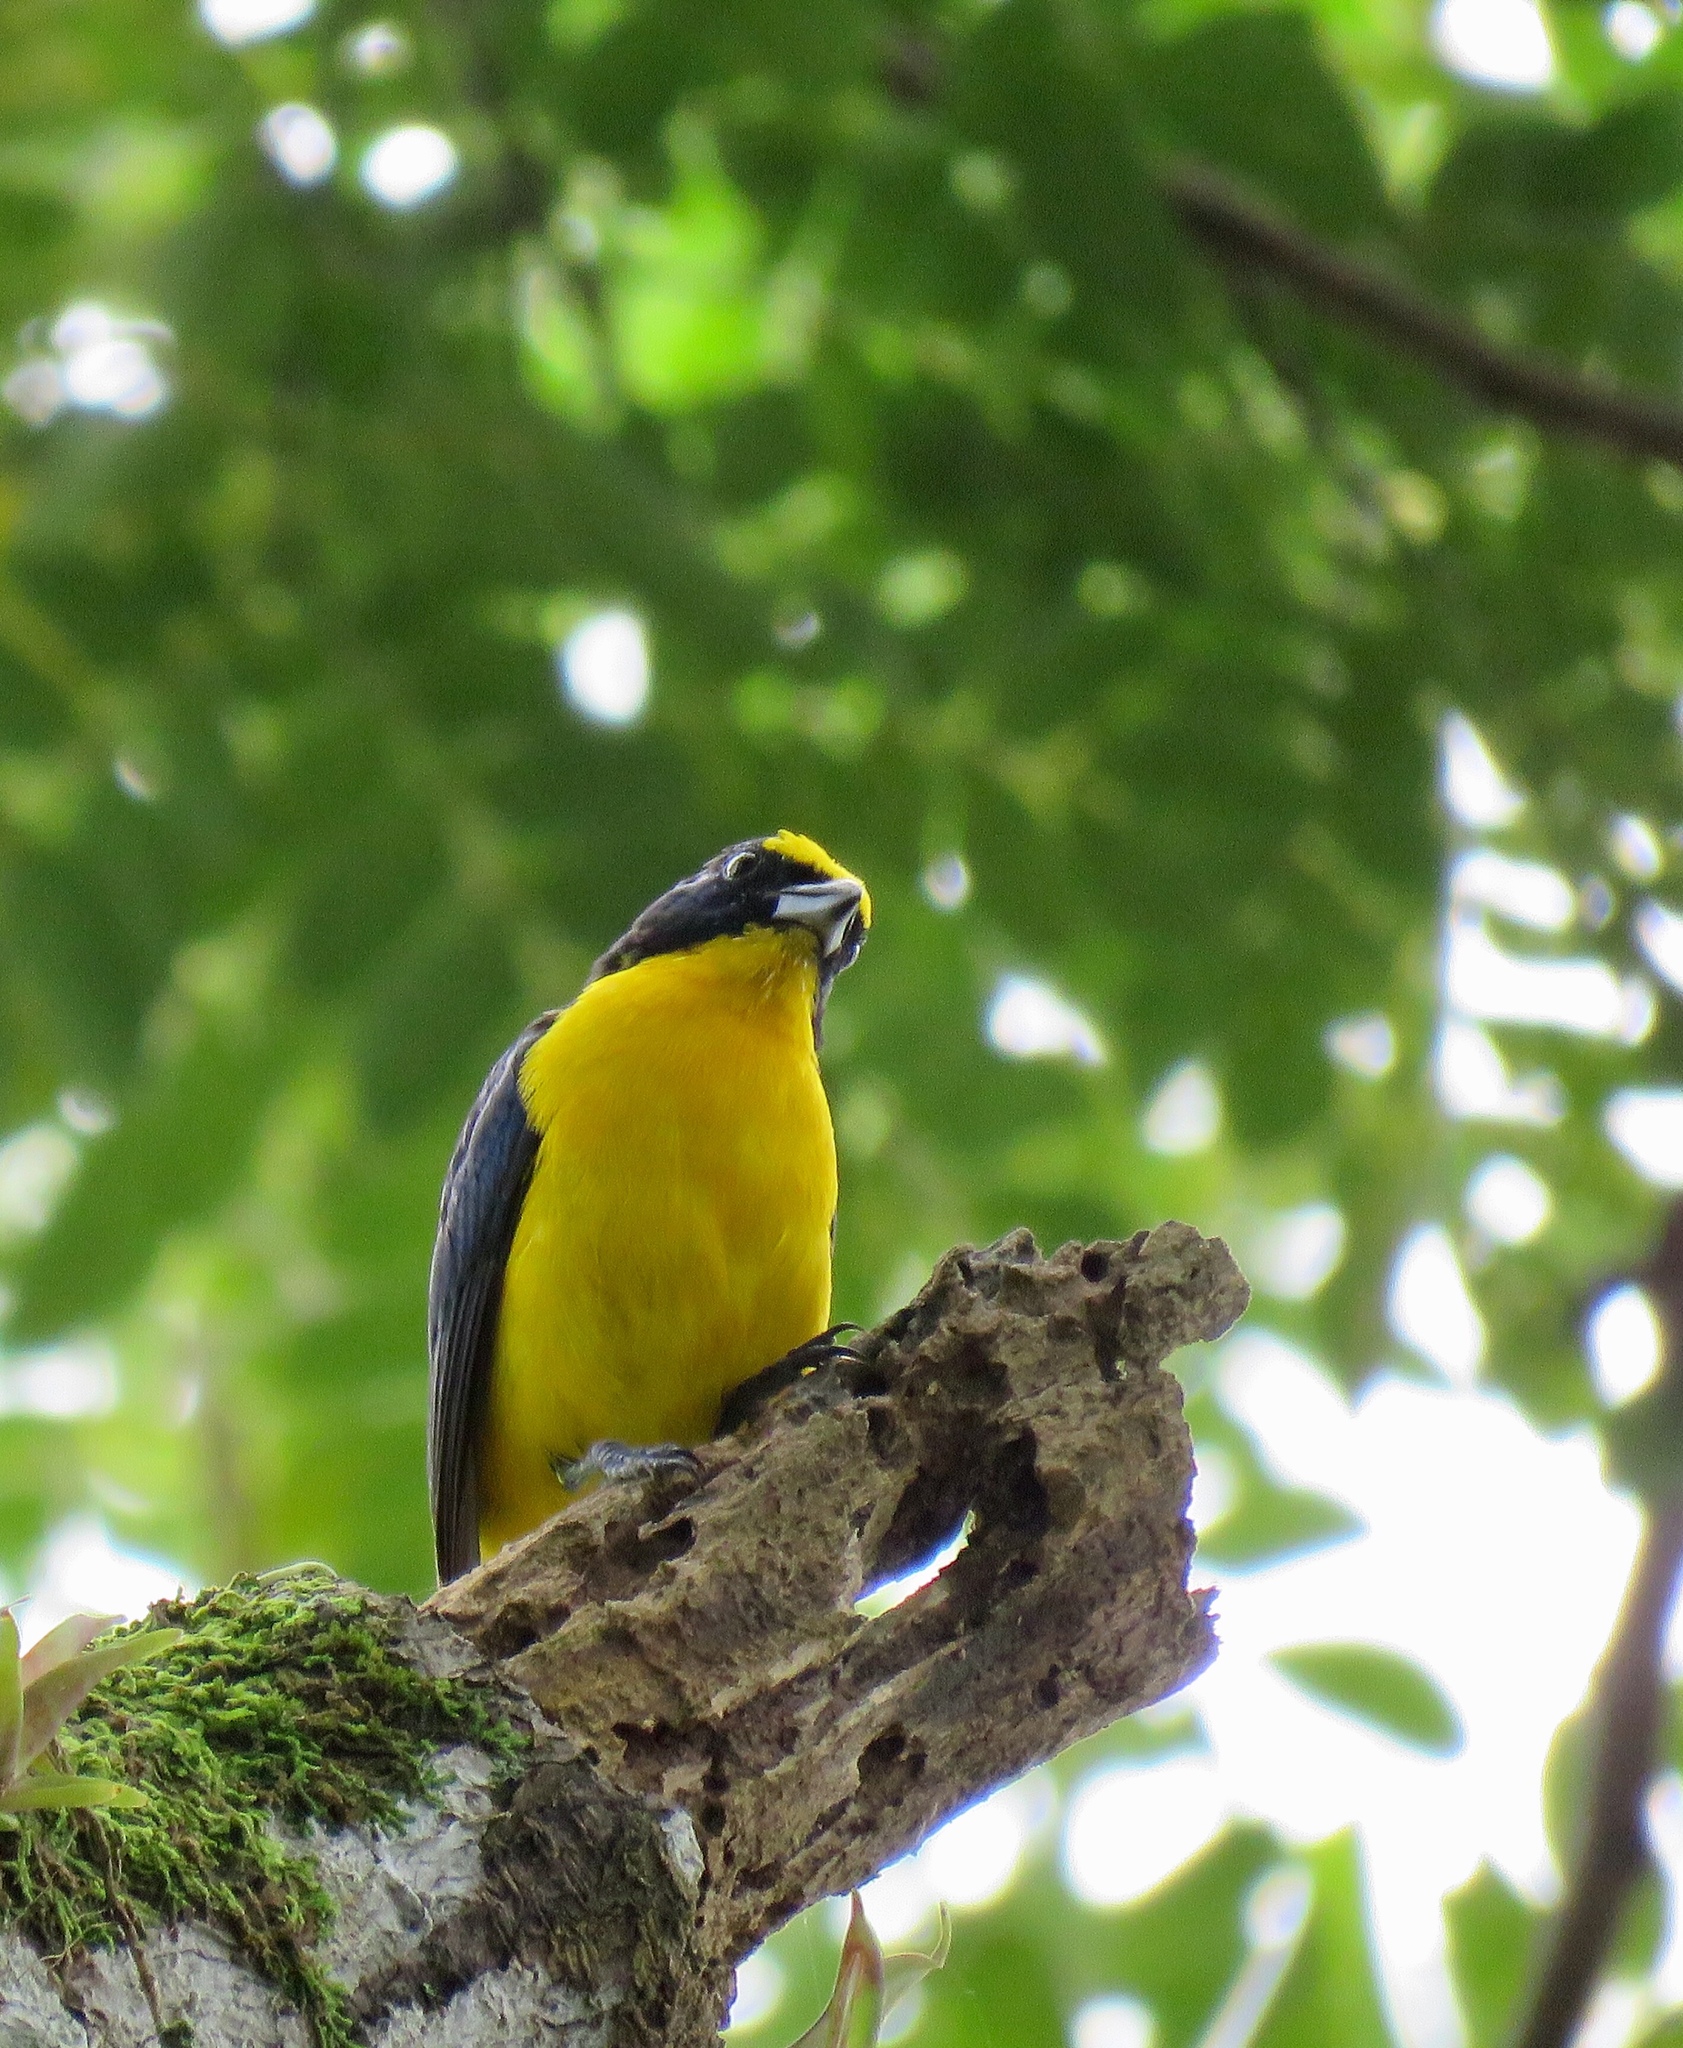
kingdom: Animalia
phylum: Chordata
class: Aves
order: Passeriformes
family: Fringillidae
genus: Euphonia
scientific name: Euphonia laniirostris
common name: Thick-billed euphonia
